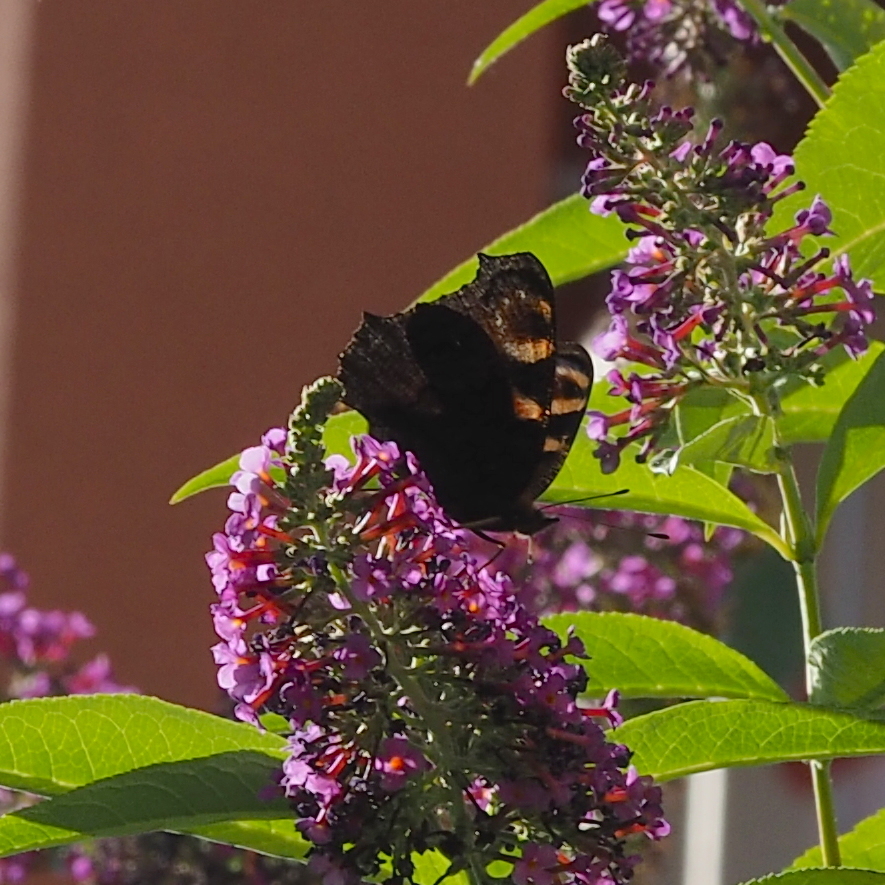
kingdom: Animalia
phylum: Arthropoda
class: Insecta
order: Lepidoptera
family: Nymphalidae
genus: Aglais
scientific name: Aglais io
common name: Peacock
